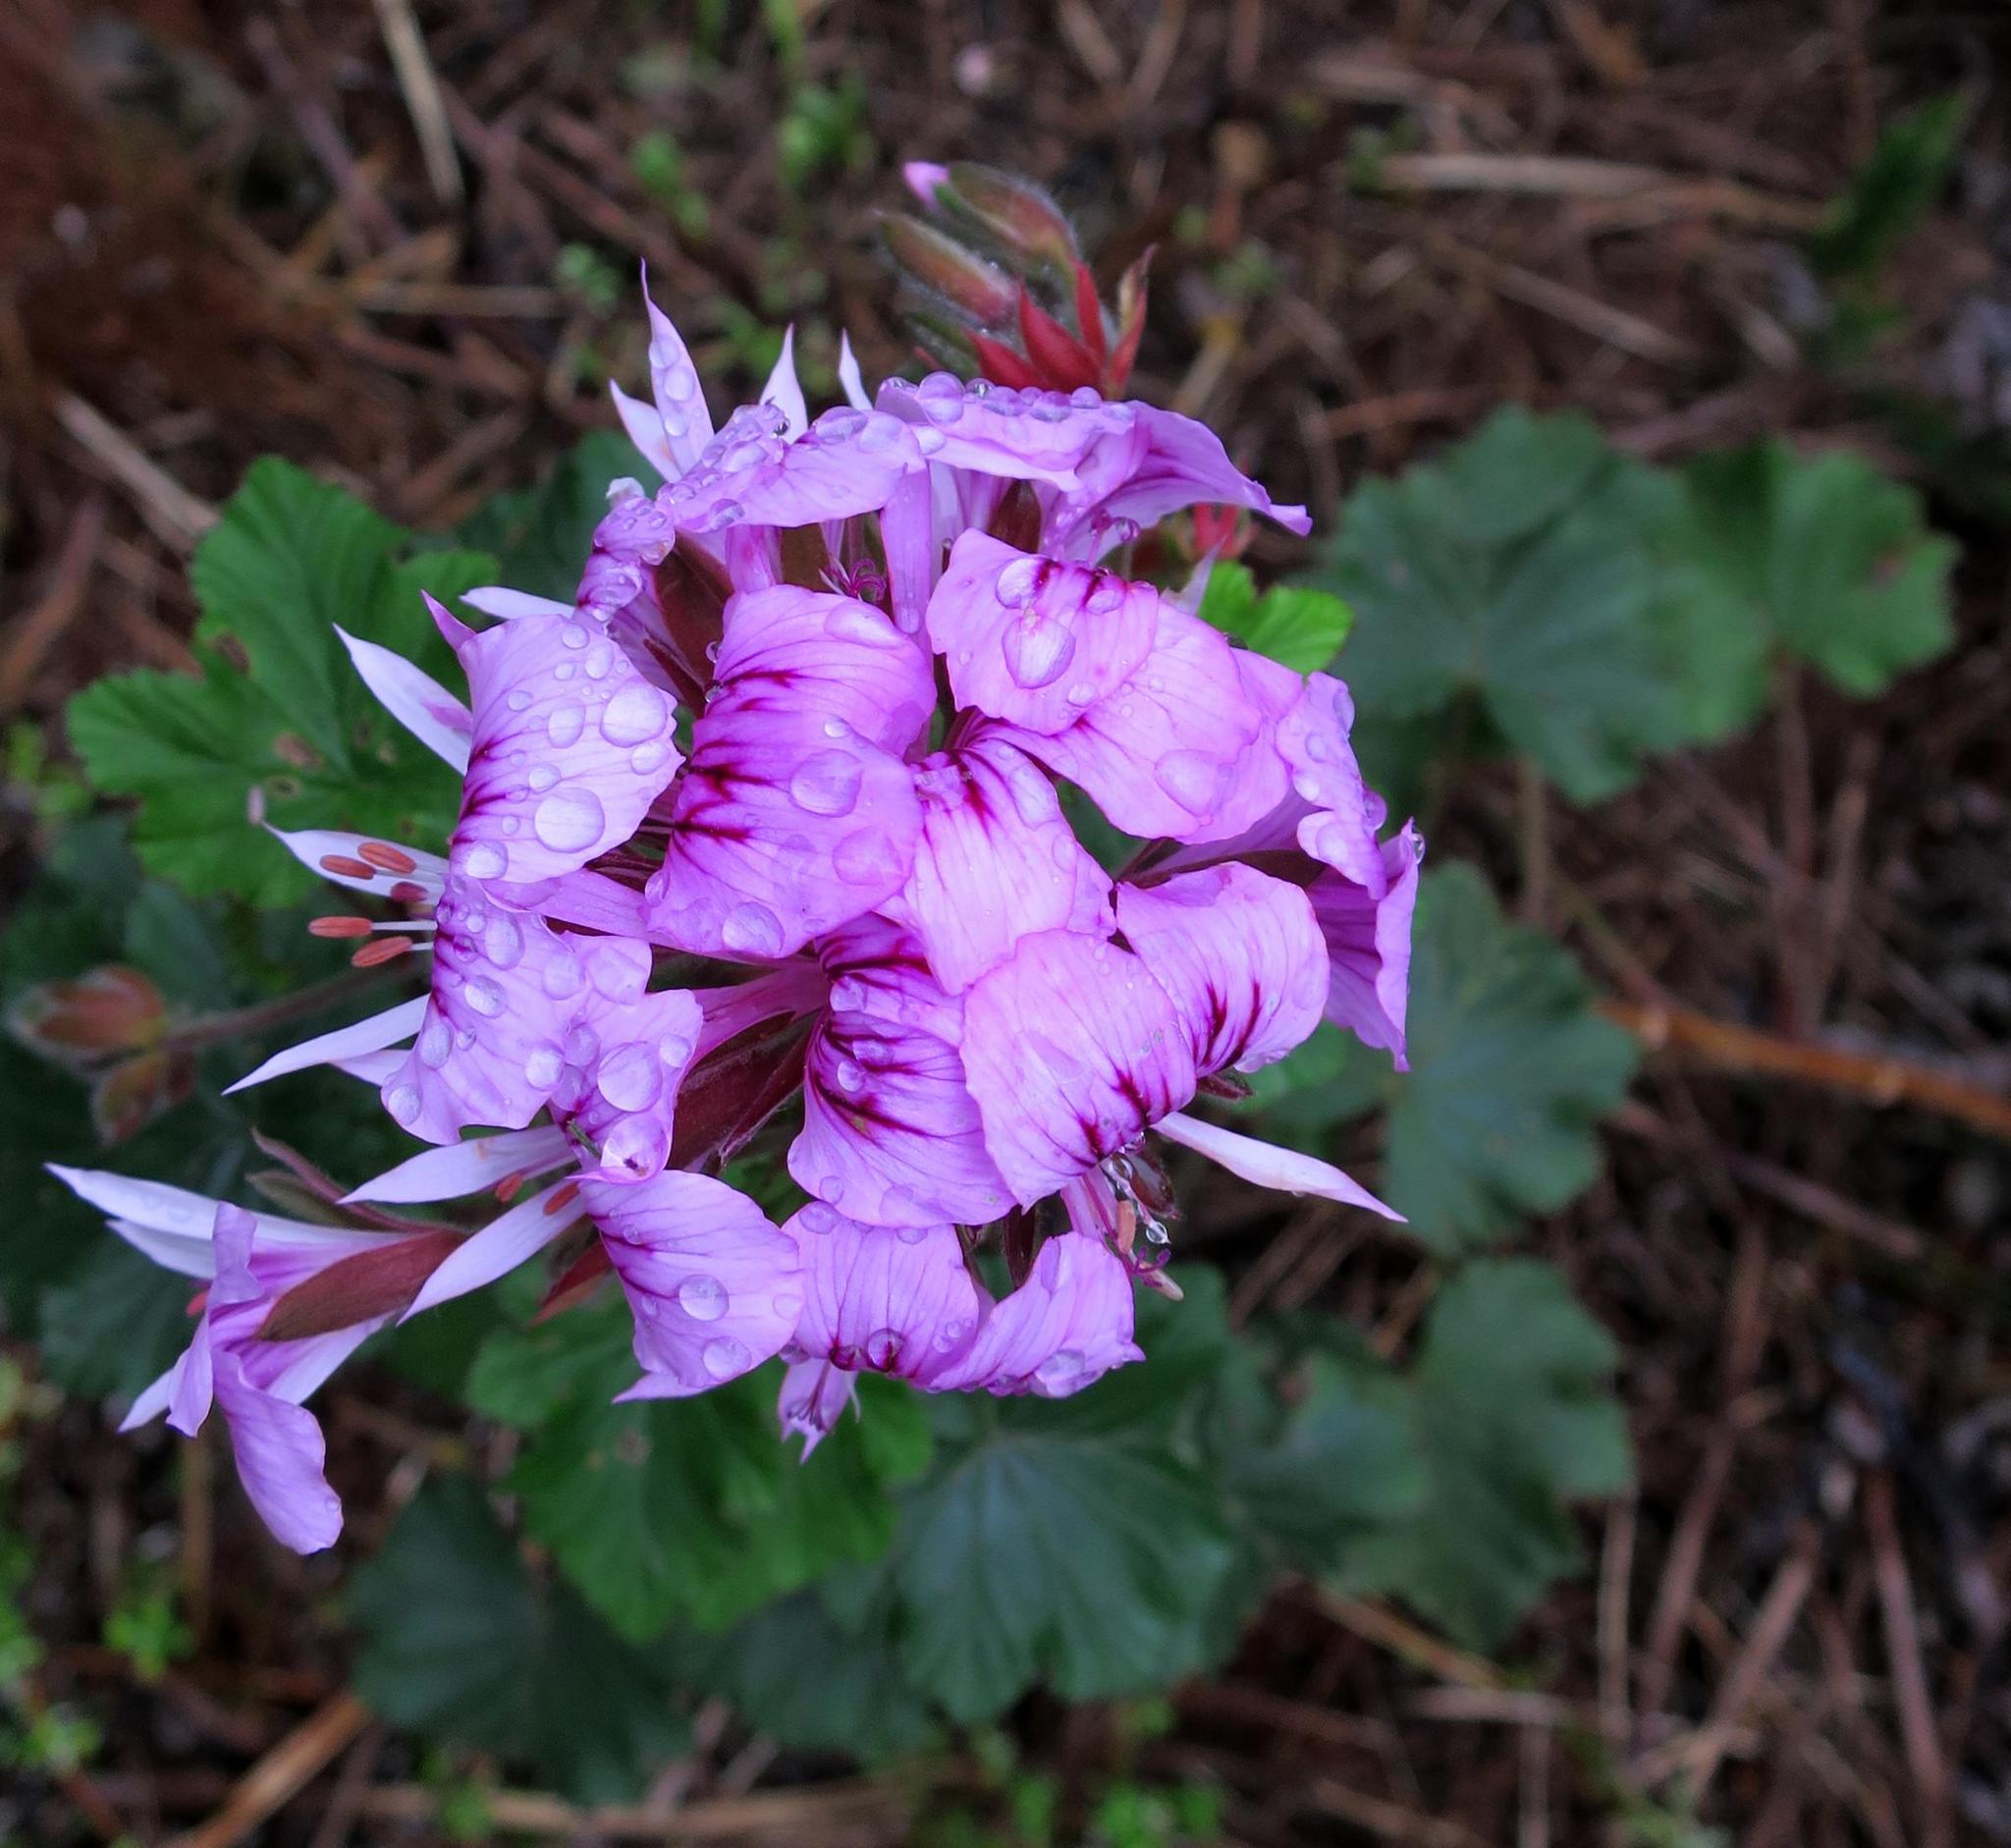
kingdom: Plantae
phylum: Tracheophyta
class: Magnoliopsida
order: Geraniales
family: Geraniaceae
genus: Pelargonium
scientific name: Pelargonium cordifolium
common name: Heart-leaf pelargonium
